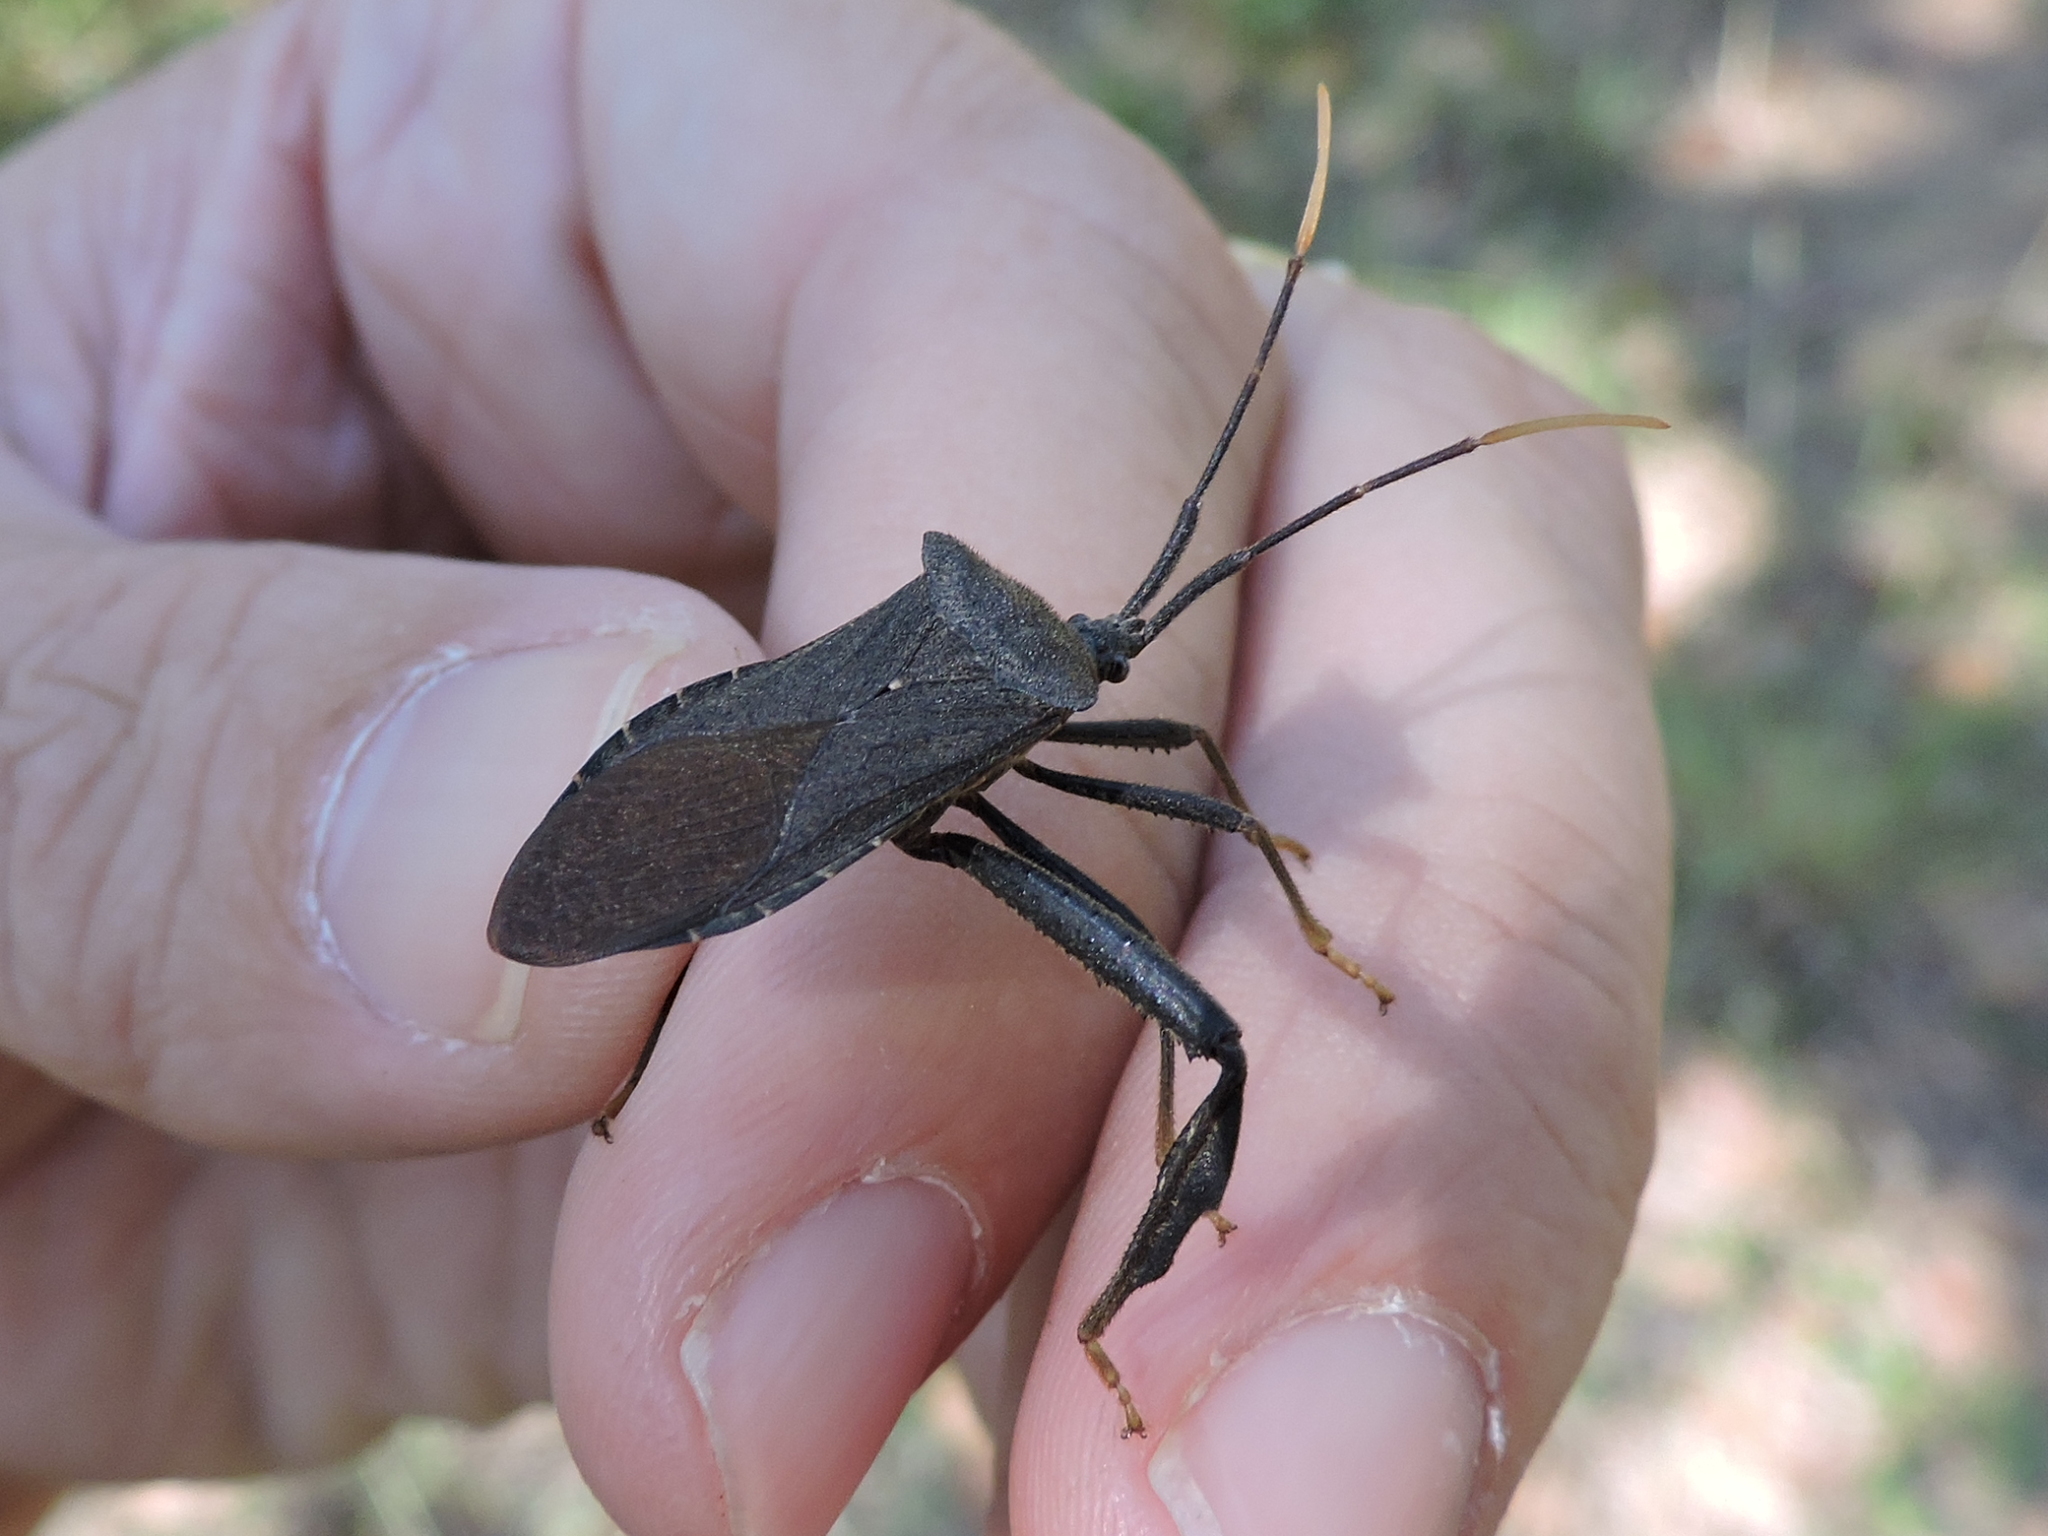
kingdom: Animalia
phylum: Arthropoda
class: Insecta
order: Hemiptera
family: Coreidae
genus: Acanthocephala
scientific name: Acanthocephala terminalis
